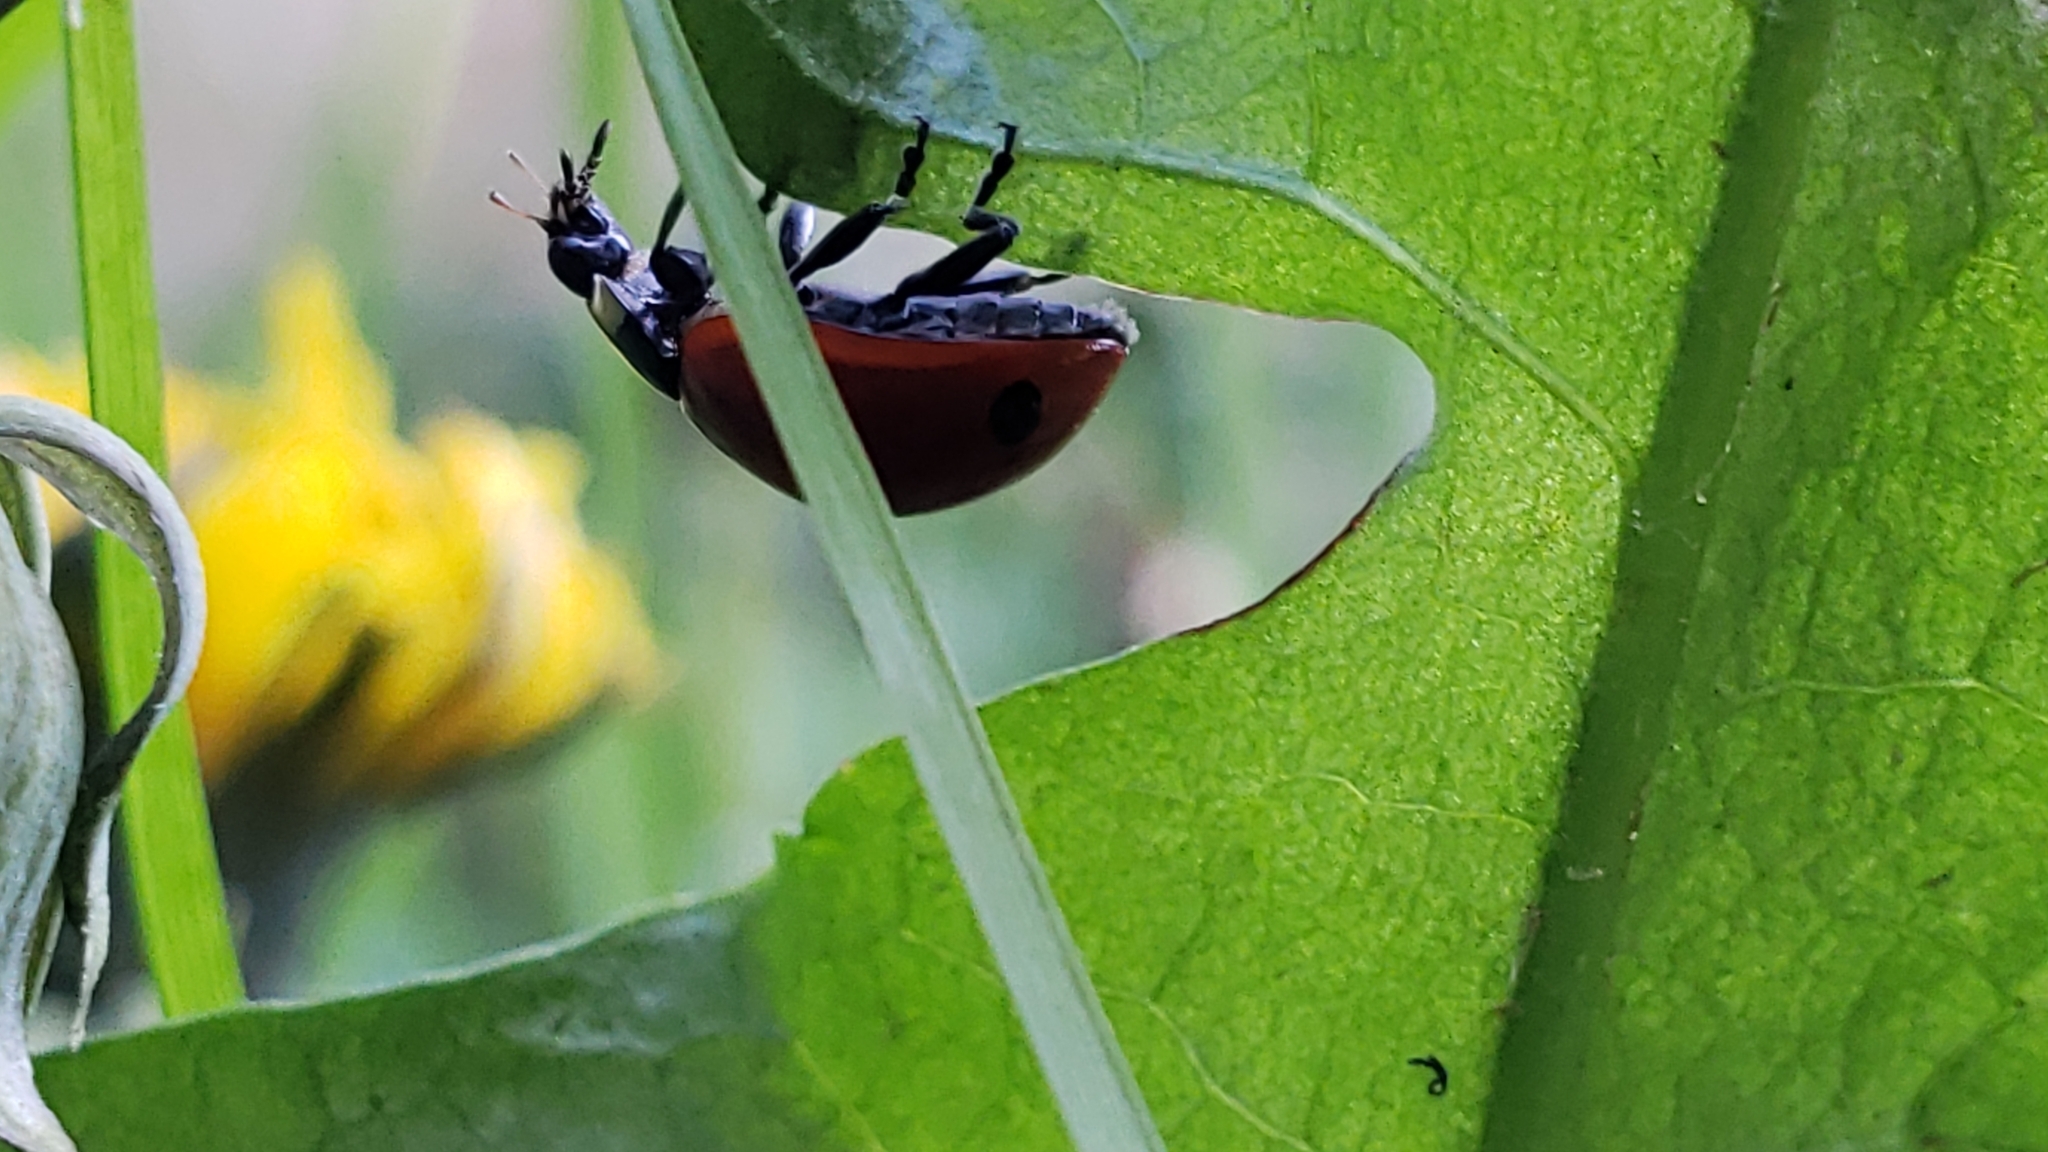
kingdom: Animalia
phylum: Arthropoda
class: Insecta
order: Coleoptera
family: Coccinellidae
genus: Coccinella
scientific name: Coccinella septempunctata
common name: Sevenspotted lady beetle
